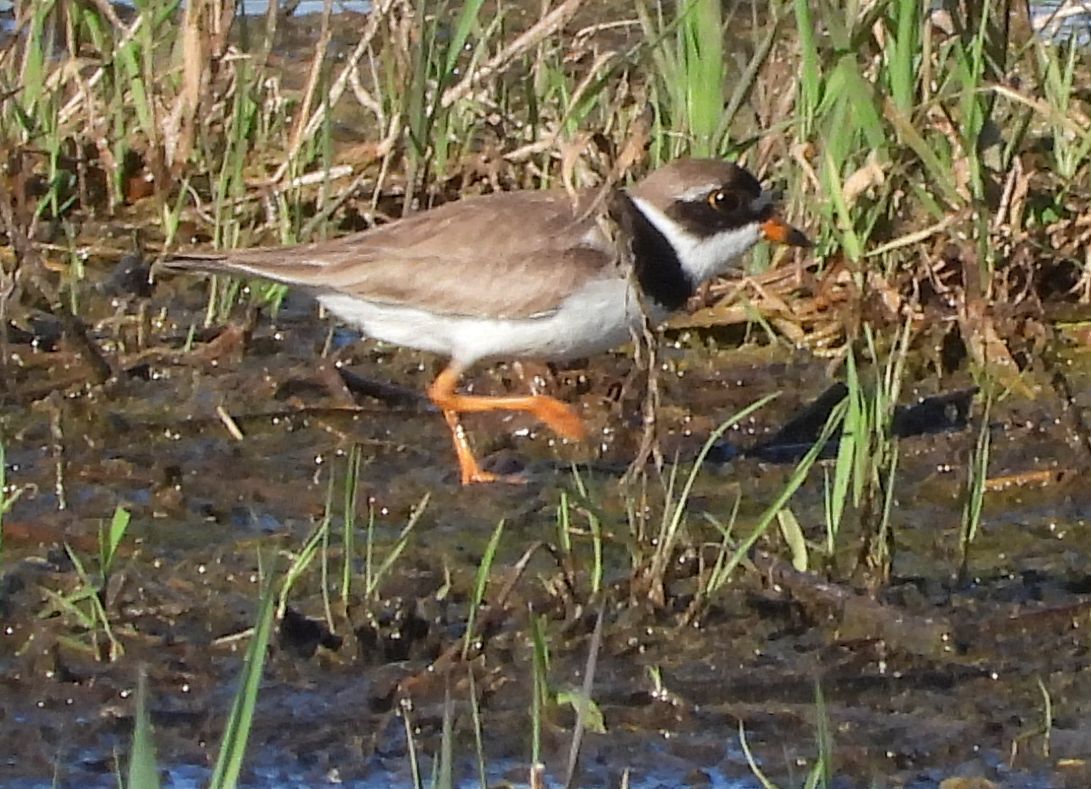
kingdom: Animalia
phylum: Chordata
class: Aves
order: Charadriiformes
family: Charadriidae
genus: Charadrius
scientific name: Charadrius semipalmatus
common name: Semipalmated plover
